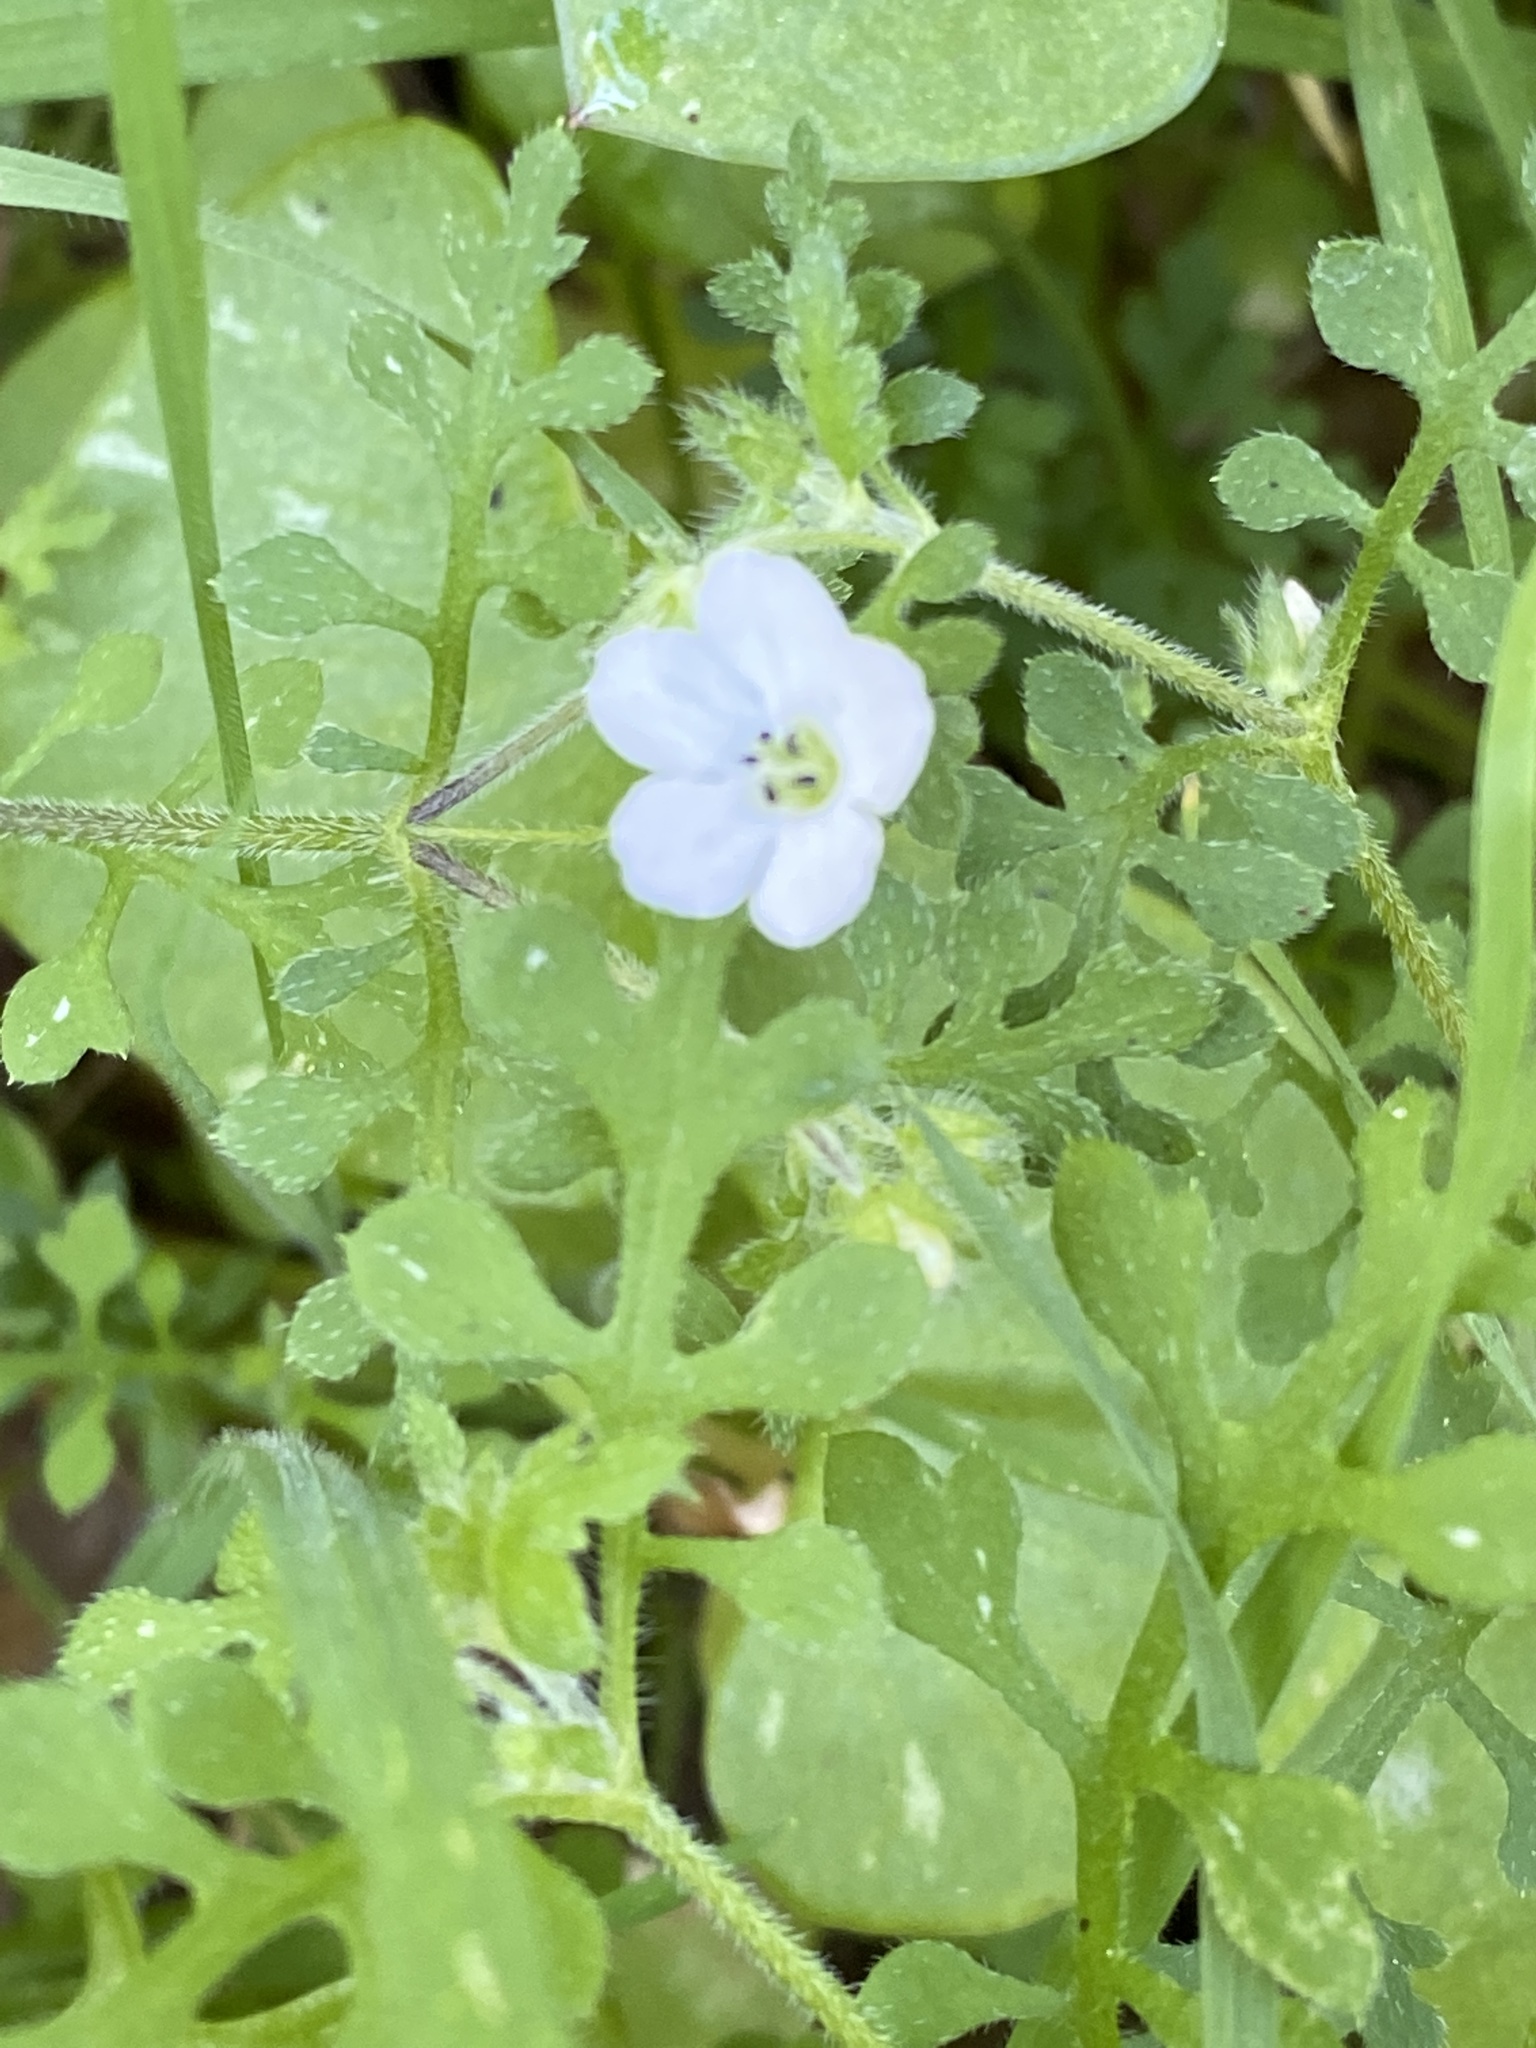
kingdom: Plantae
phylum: Tracheophyta
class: Magnoliopsida
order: Boraginales
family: Hydrophyllaceae
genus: Nemophila
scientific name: Nemophila heterophylla
